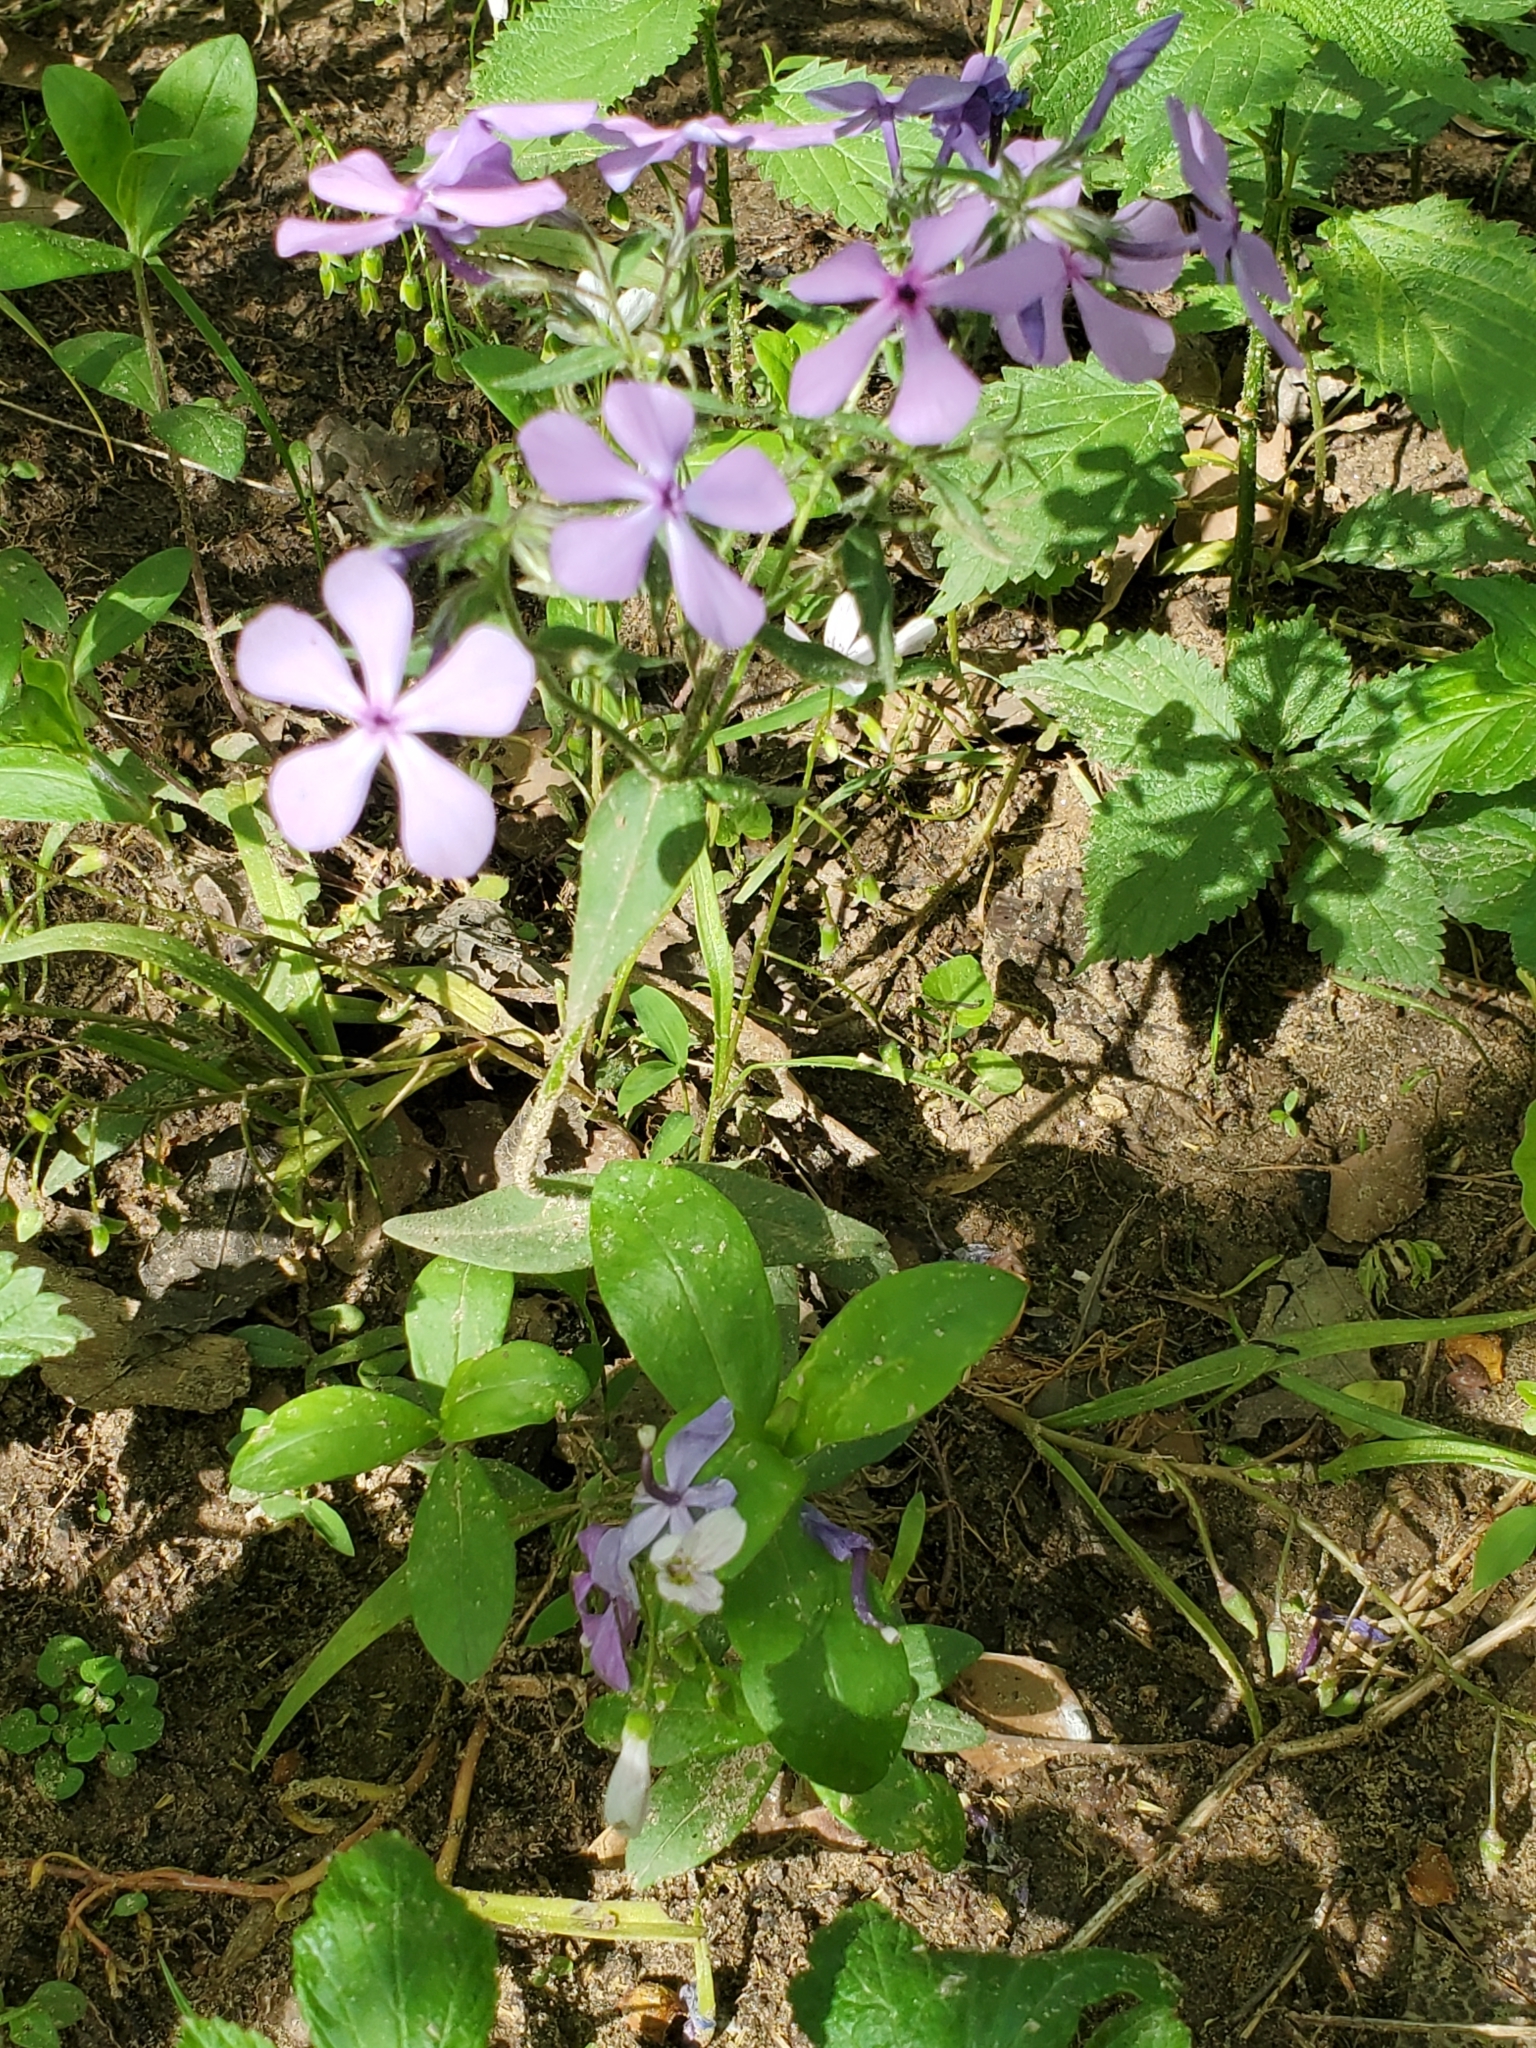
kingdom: Plantae
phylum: Tracheophyta
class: Magnoliopsida
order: Ericales
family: Polemoniaceae
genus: Phlox
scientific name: Phlox divaricata
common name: Blue phlox
